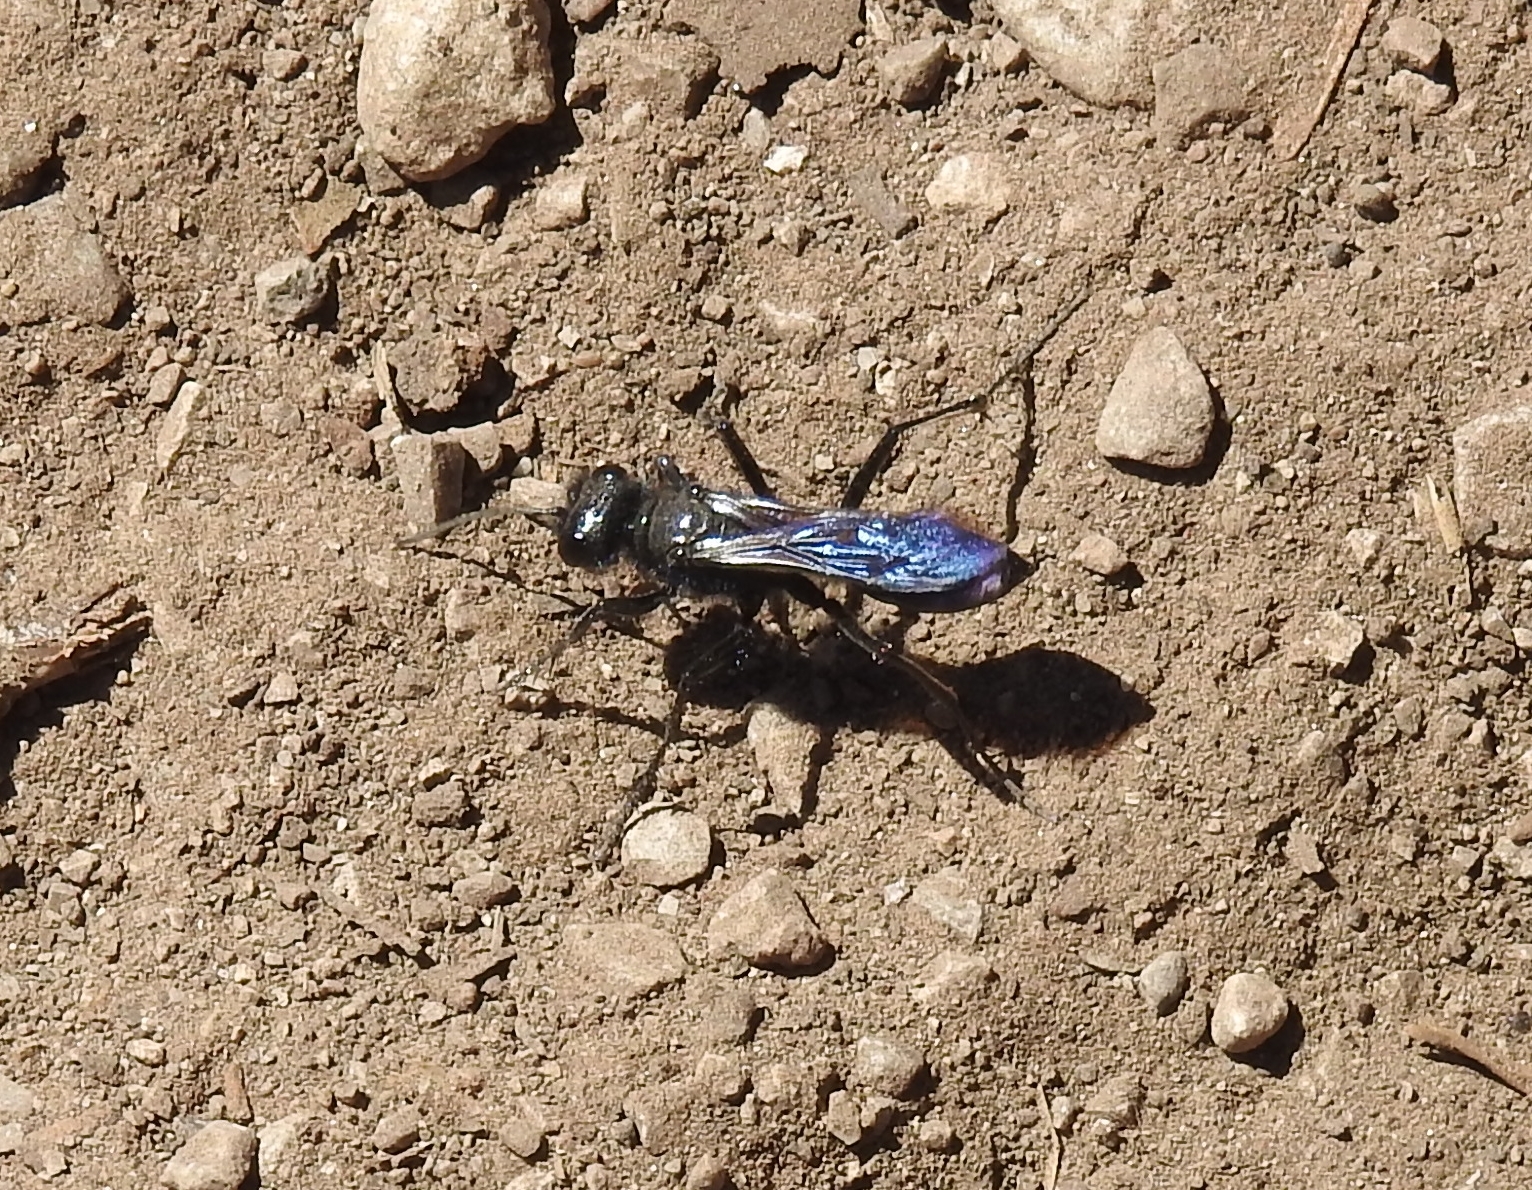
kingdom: Animalia
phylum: Arthropoda
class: Insecta
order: Hymenoptera
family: Sphecidae
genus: Podalonia
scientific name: Podalonia
